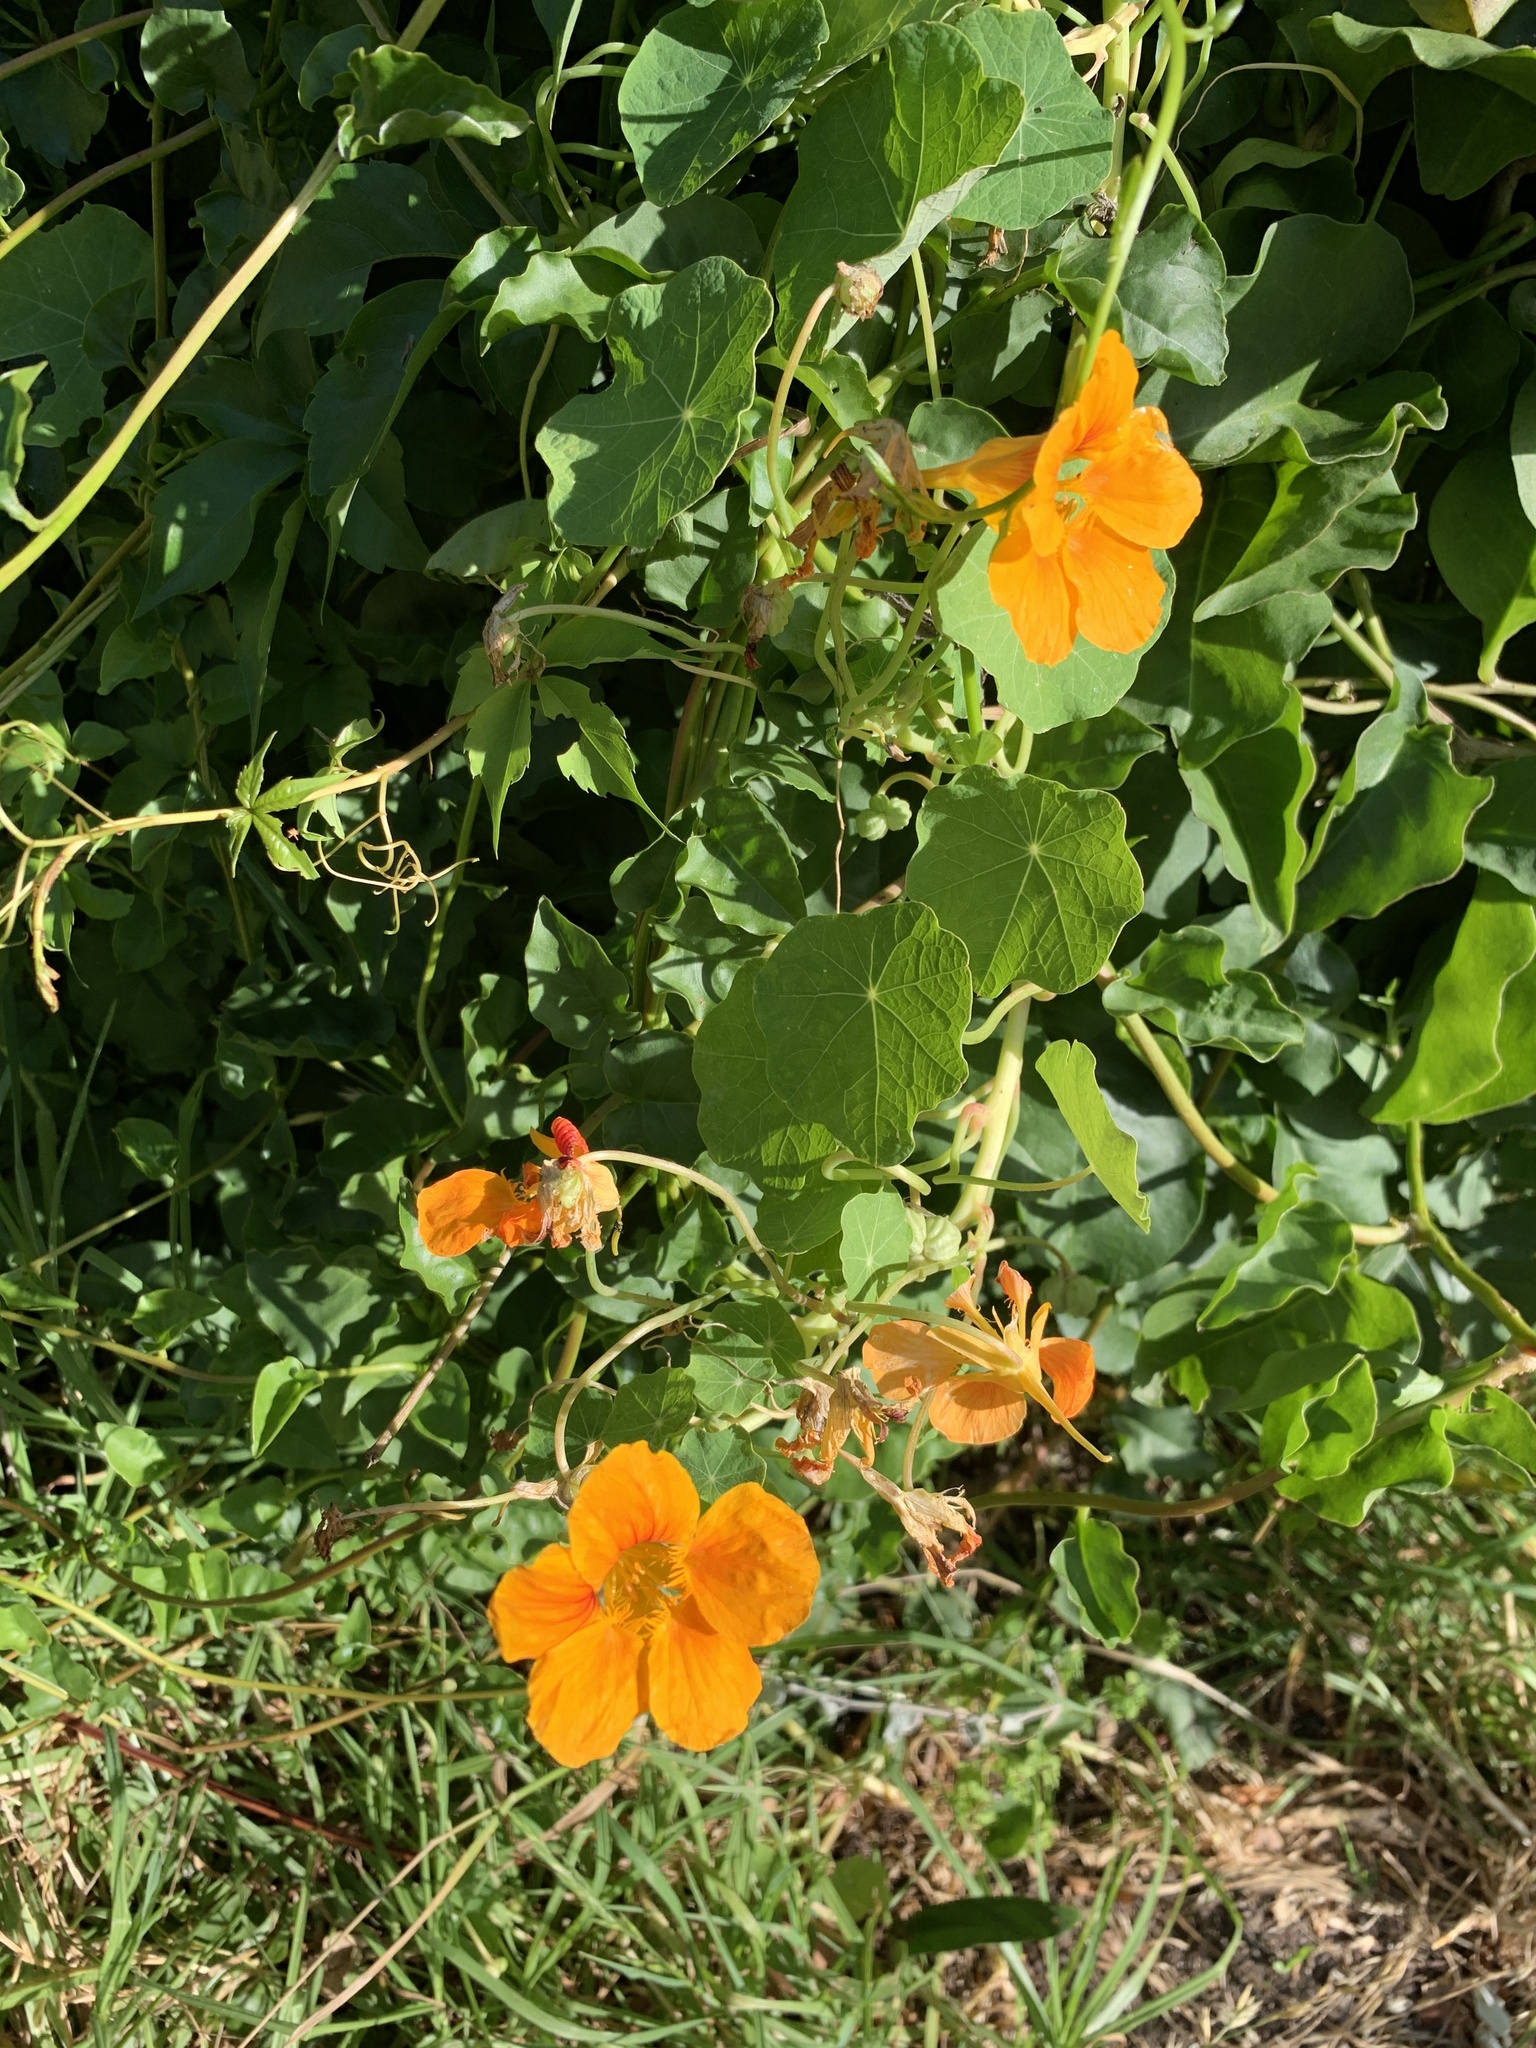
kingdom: Plantae
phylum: Tracheophyta
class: Magnoliopsida
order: Brassicales
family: Tropaeolaceae
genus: Tropaeolum
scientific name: Tropaeolum majus
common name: Nasturtium
